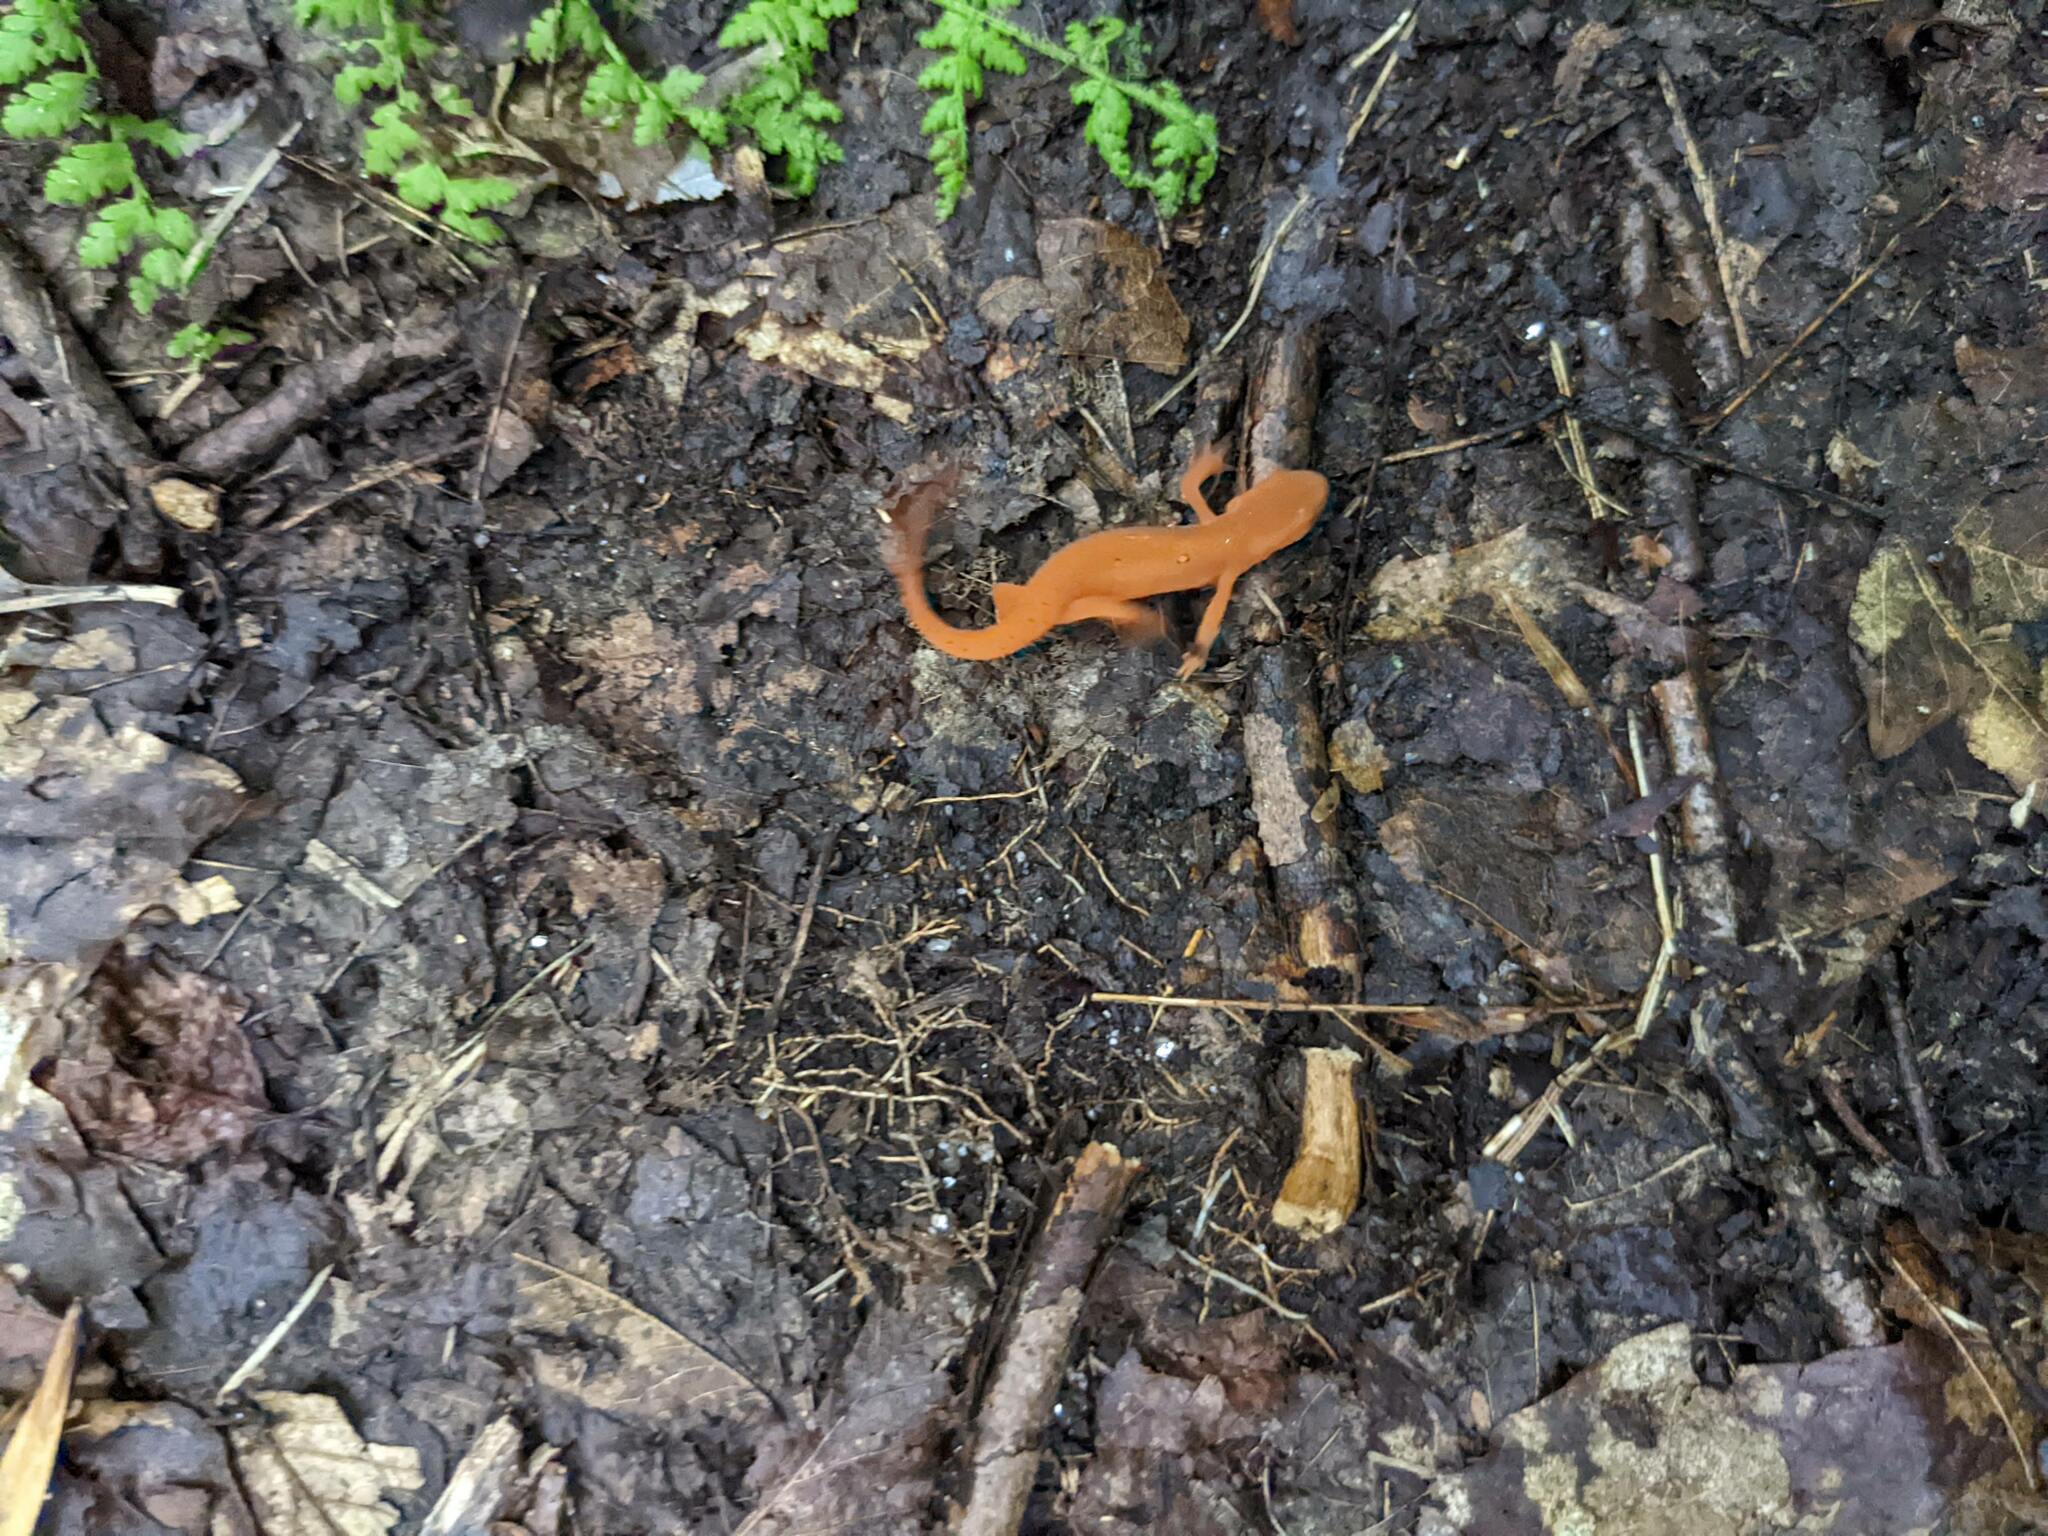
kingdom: Animalia
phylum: Chordata
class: Amphibia
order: Caudata
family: Salamandridae
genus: Notophthalmus
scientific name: Notophthalmus viridescens
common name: Eastern newt
